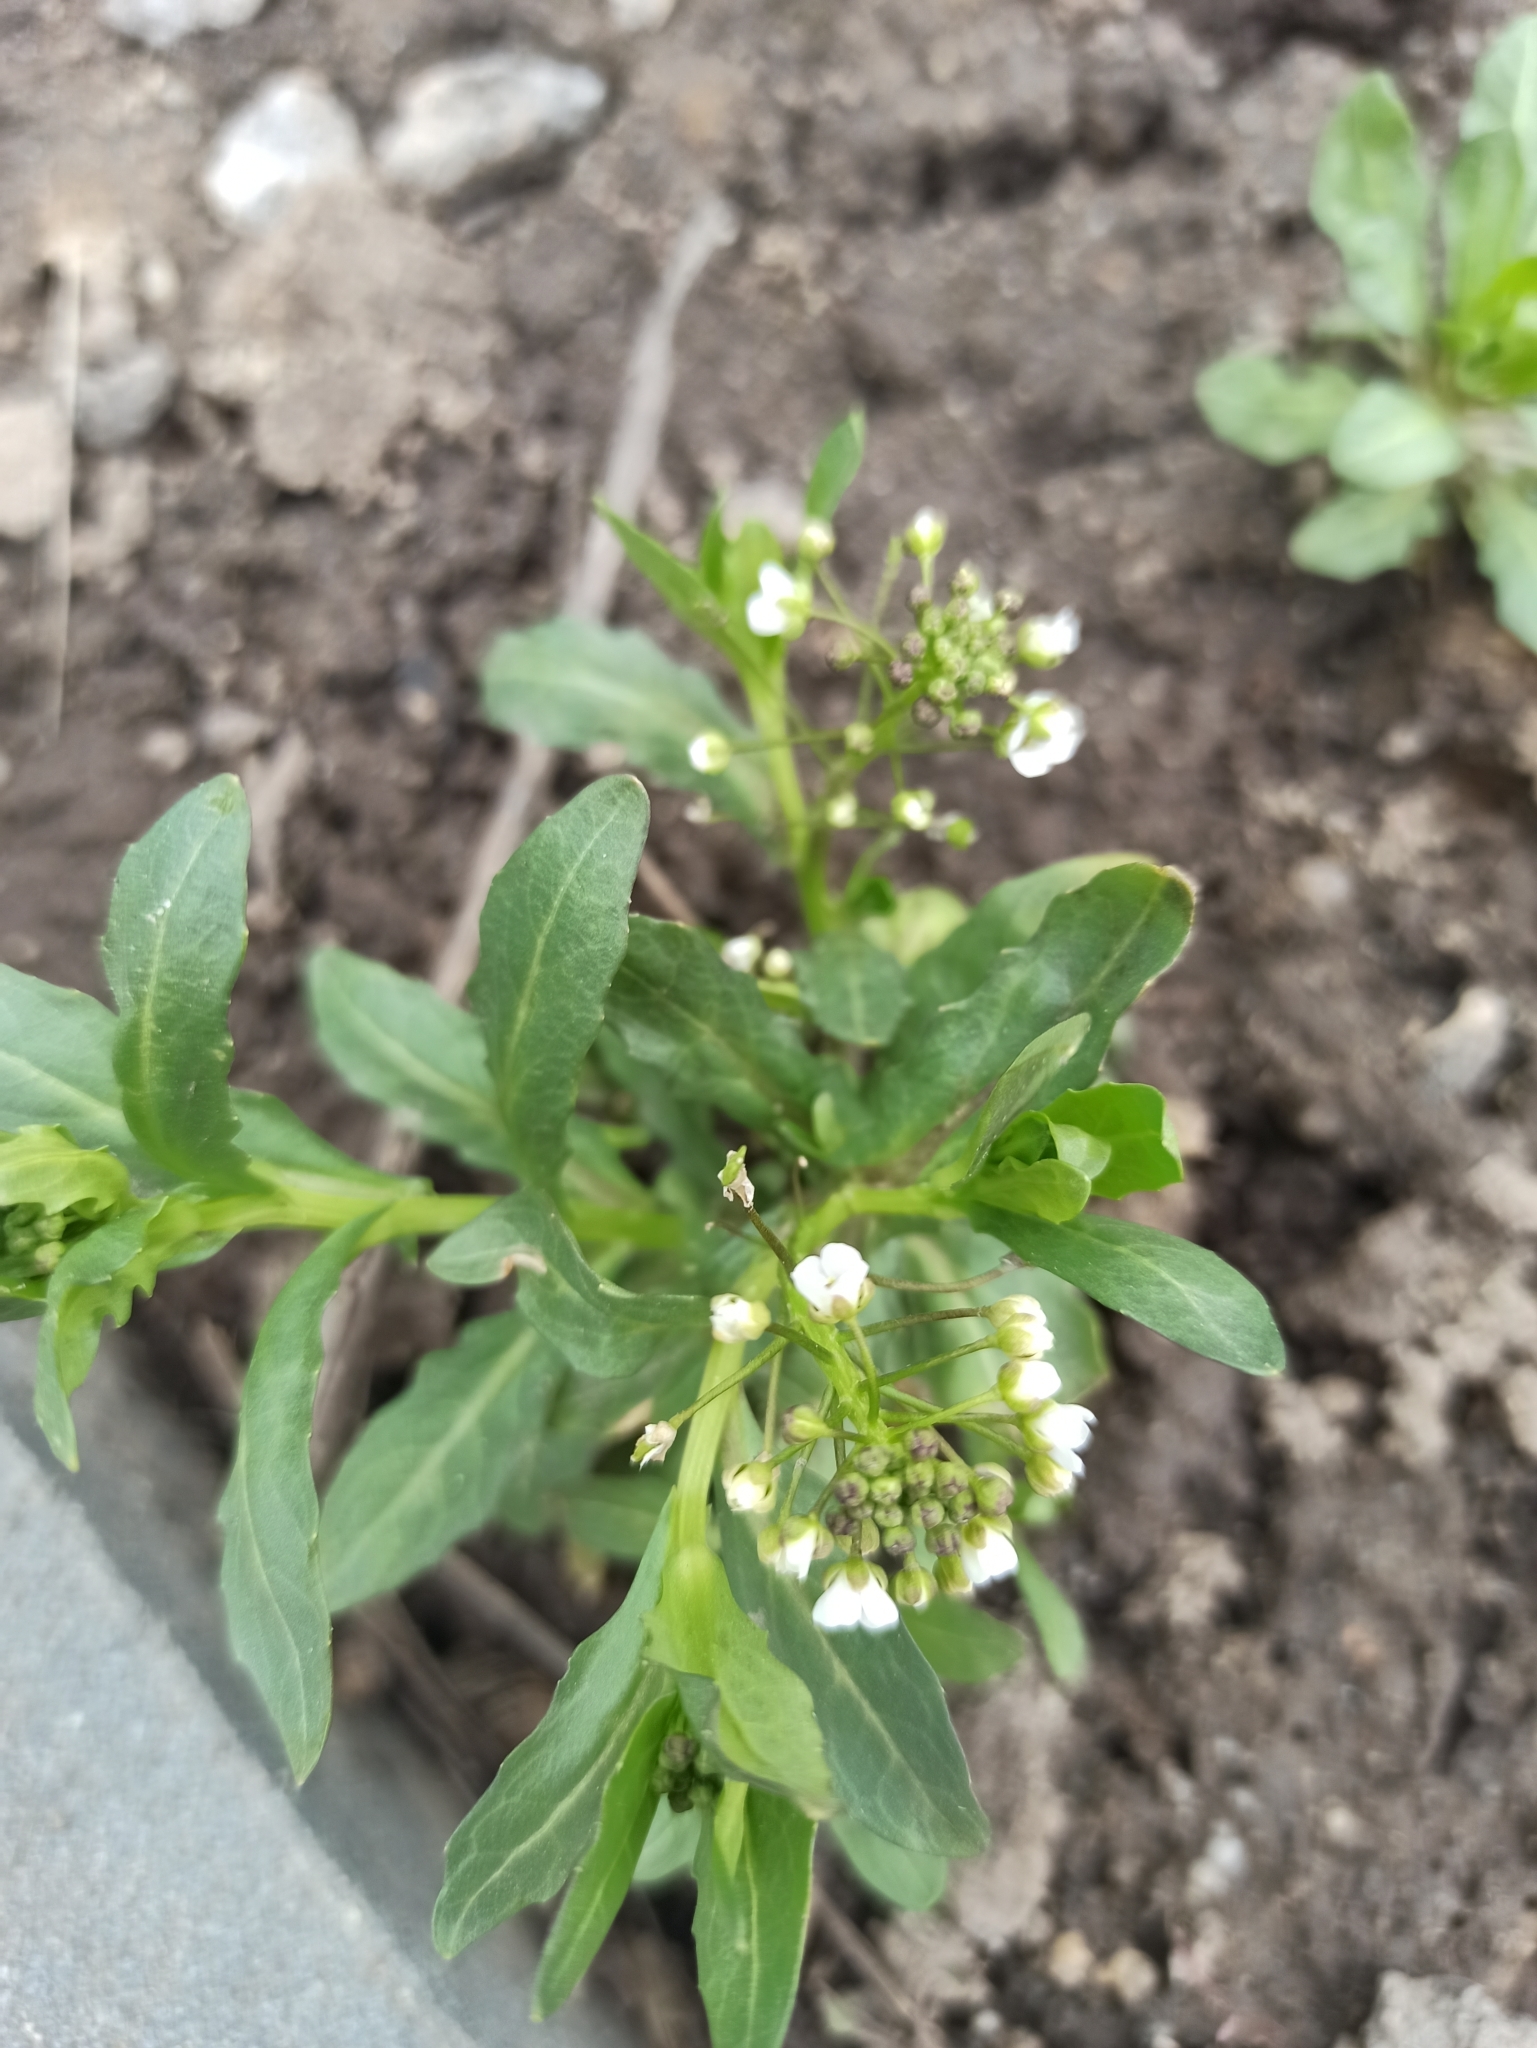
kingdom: Plantae
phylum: Tracheophyta
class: Magnoliopsida
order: Brassicales
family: Brassicaceae
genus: Thlaspi
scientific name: Thlaspi arvense
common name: Field pennycress
